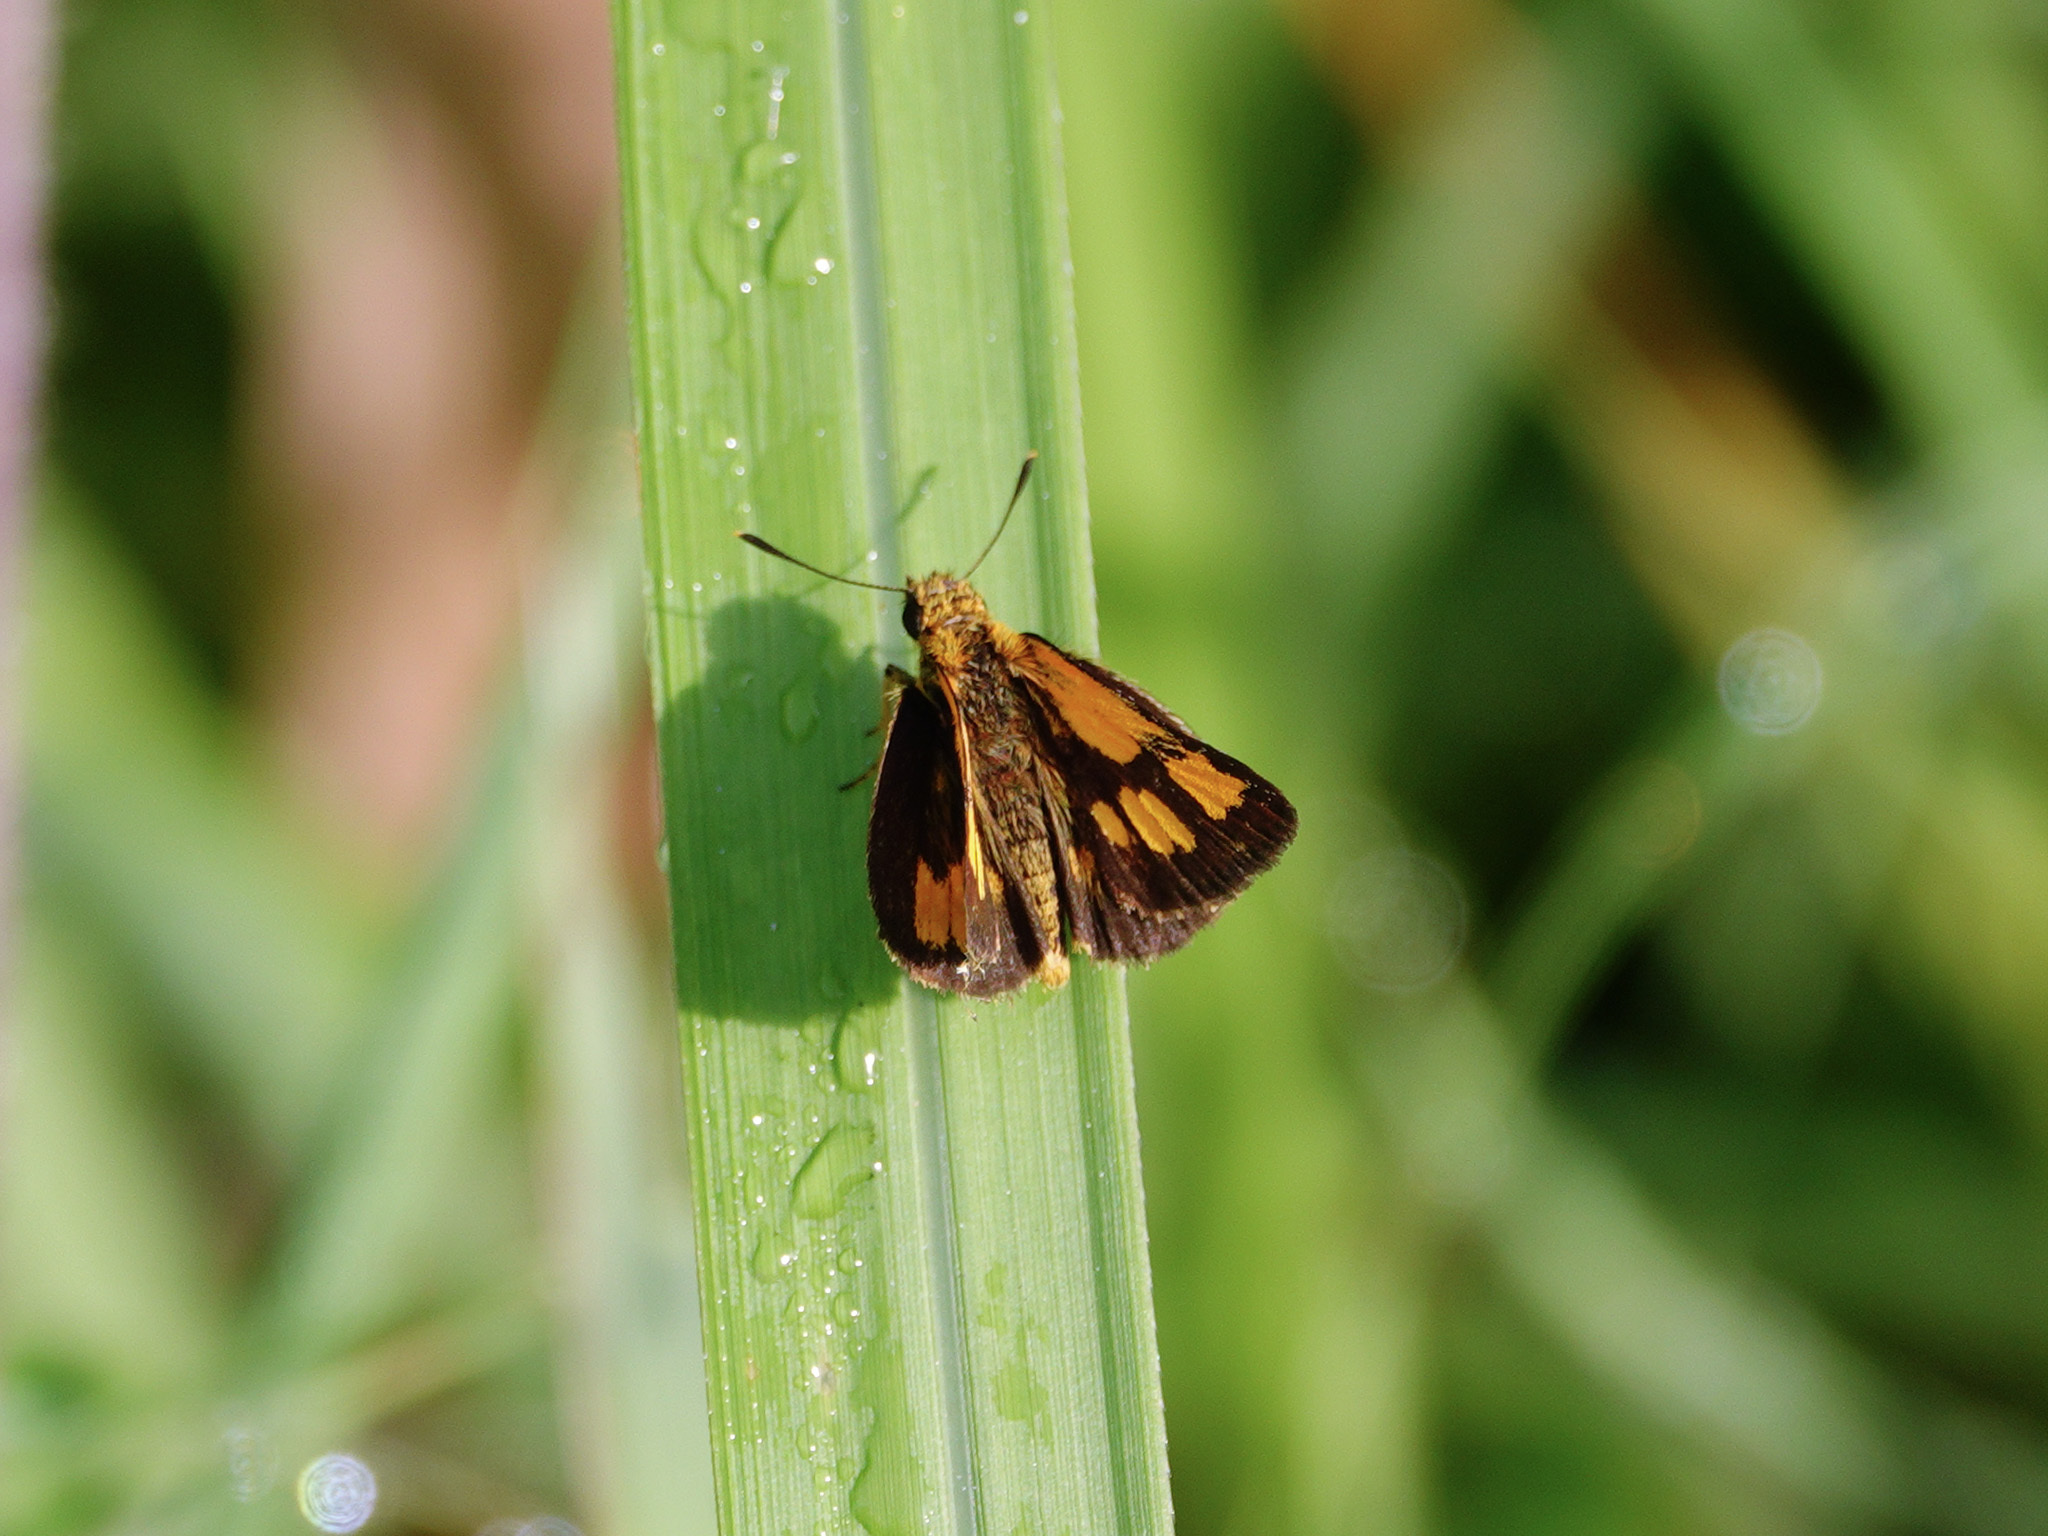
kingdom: Animalia
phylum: Arthropoda
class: Insecta
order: Lepidoptera
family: Hesperiidae
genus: Ampittia
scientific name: Ampittia dioscorides
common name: Common bush hopper
